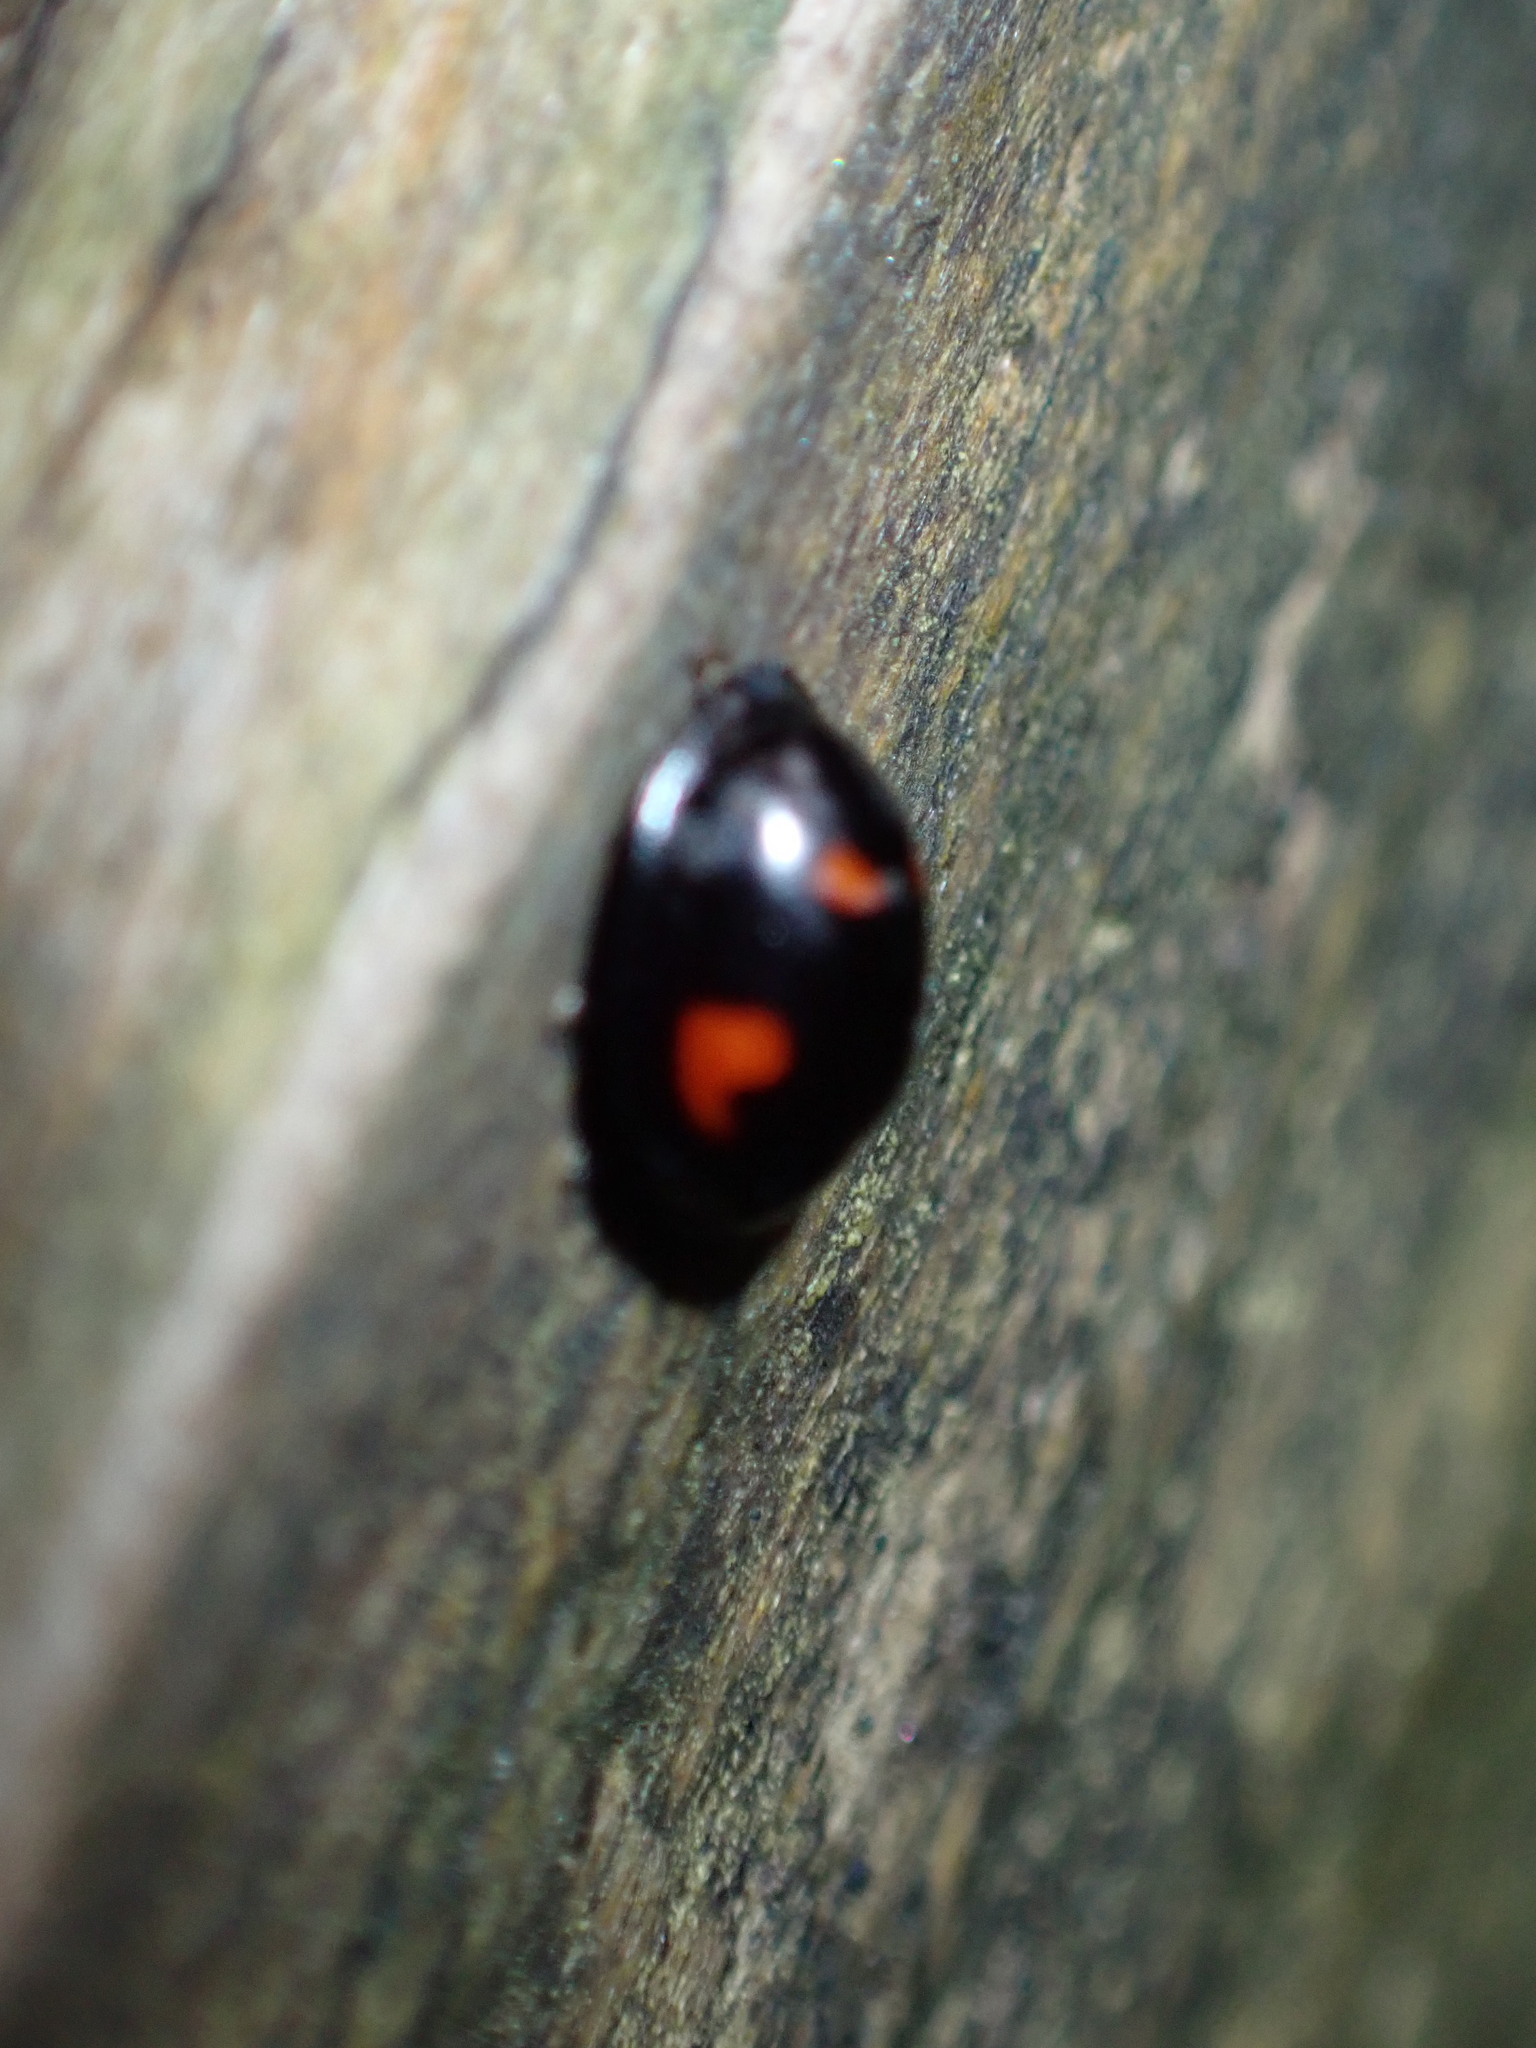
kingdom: Animalia
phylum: Arthropoda
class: Insecta
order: Coleoptera
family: Coccinellidae
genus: Brumus
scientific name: Brumus quadripustulatus
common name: Ladybird beetle
